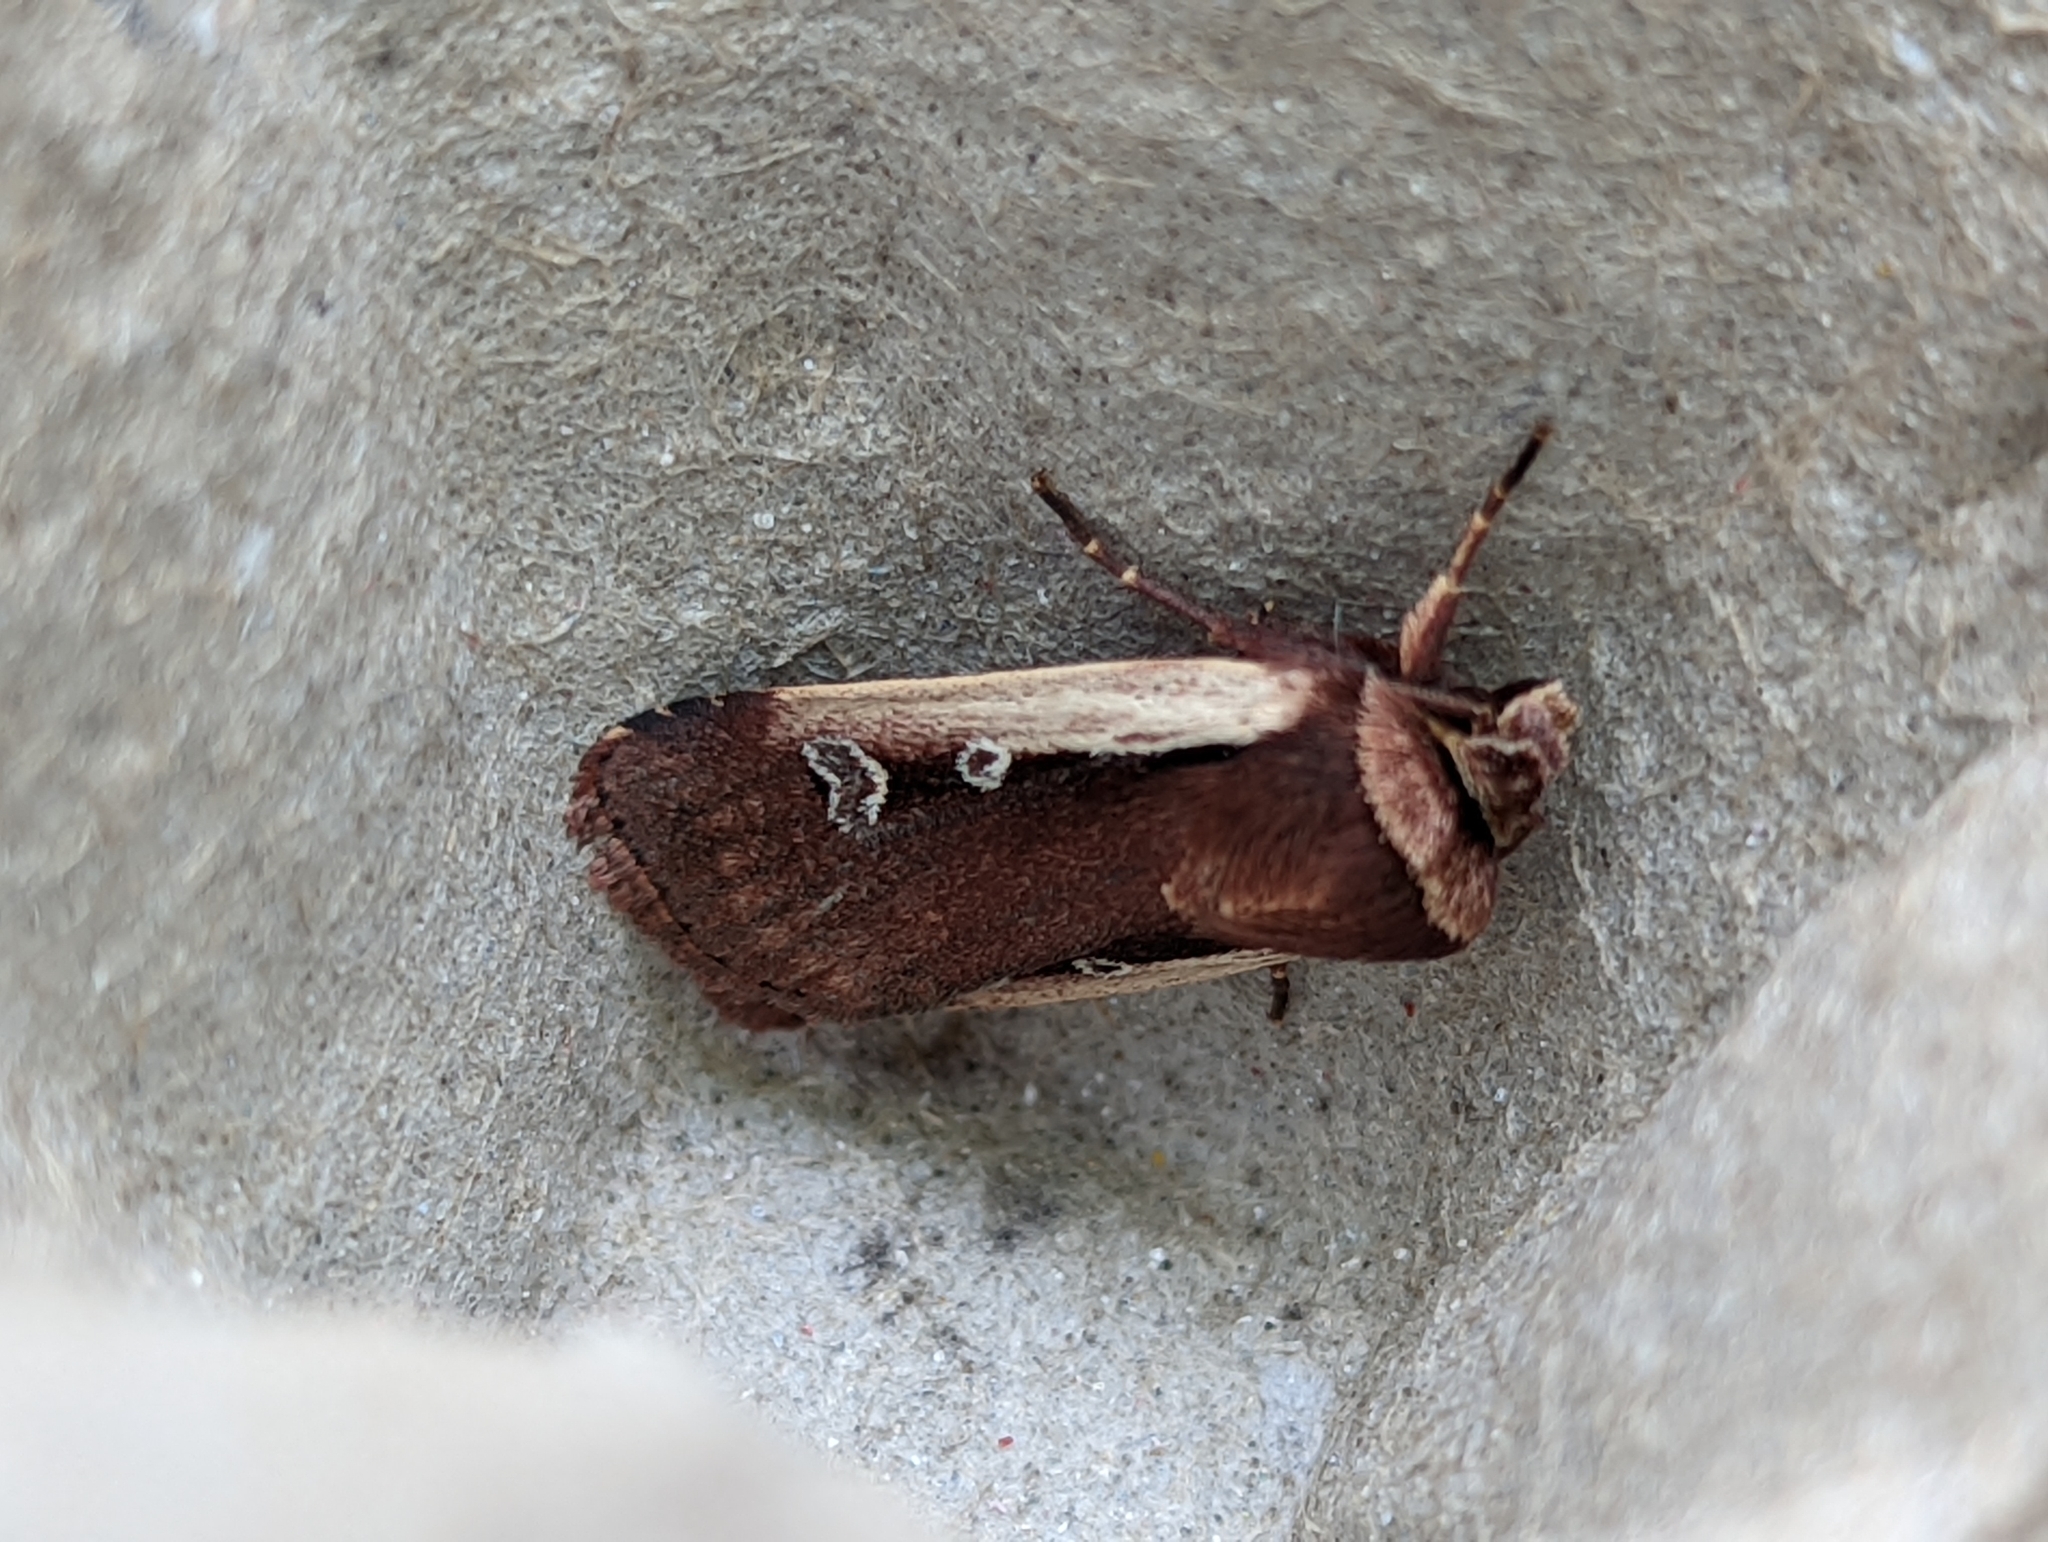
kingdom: Animalia
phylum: Arthropoda
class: Insecta
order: Lepidoptera
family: Noctuidae
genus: Ochropleura
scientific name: Ochropleura plecta
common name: Flame shoulder
